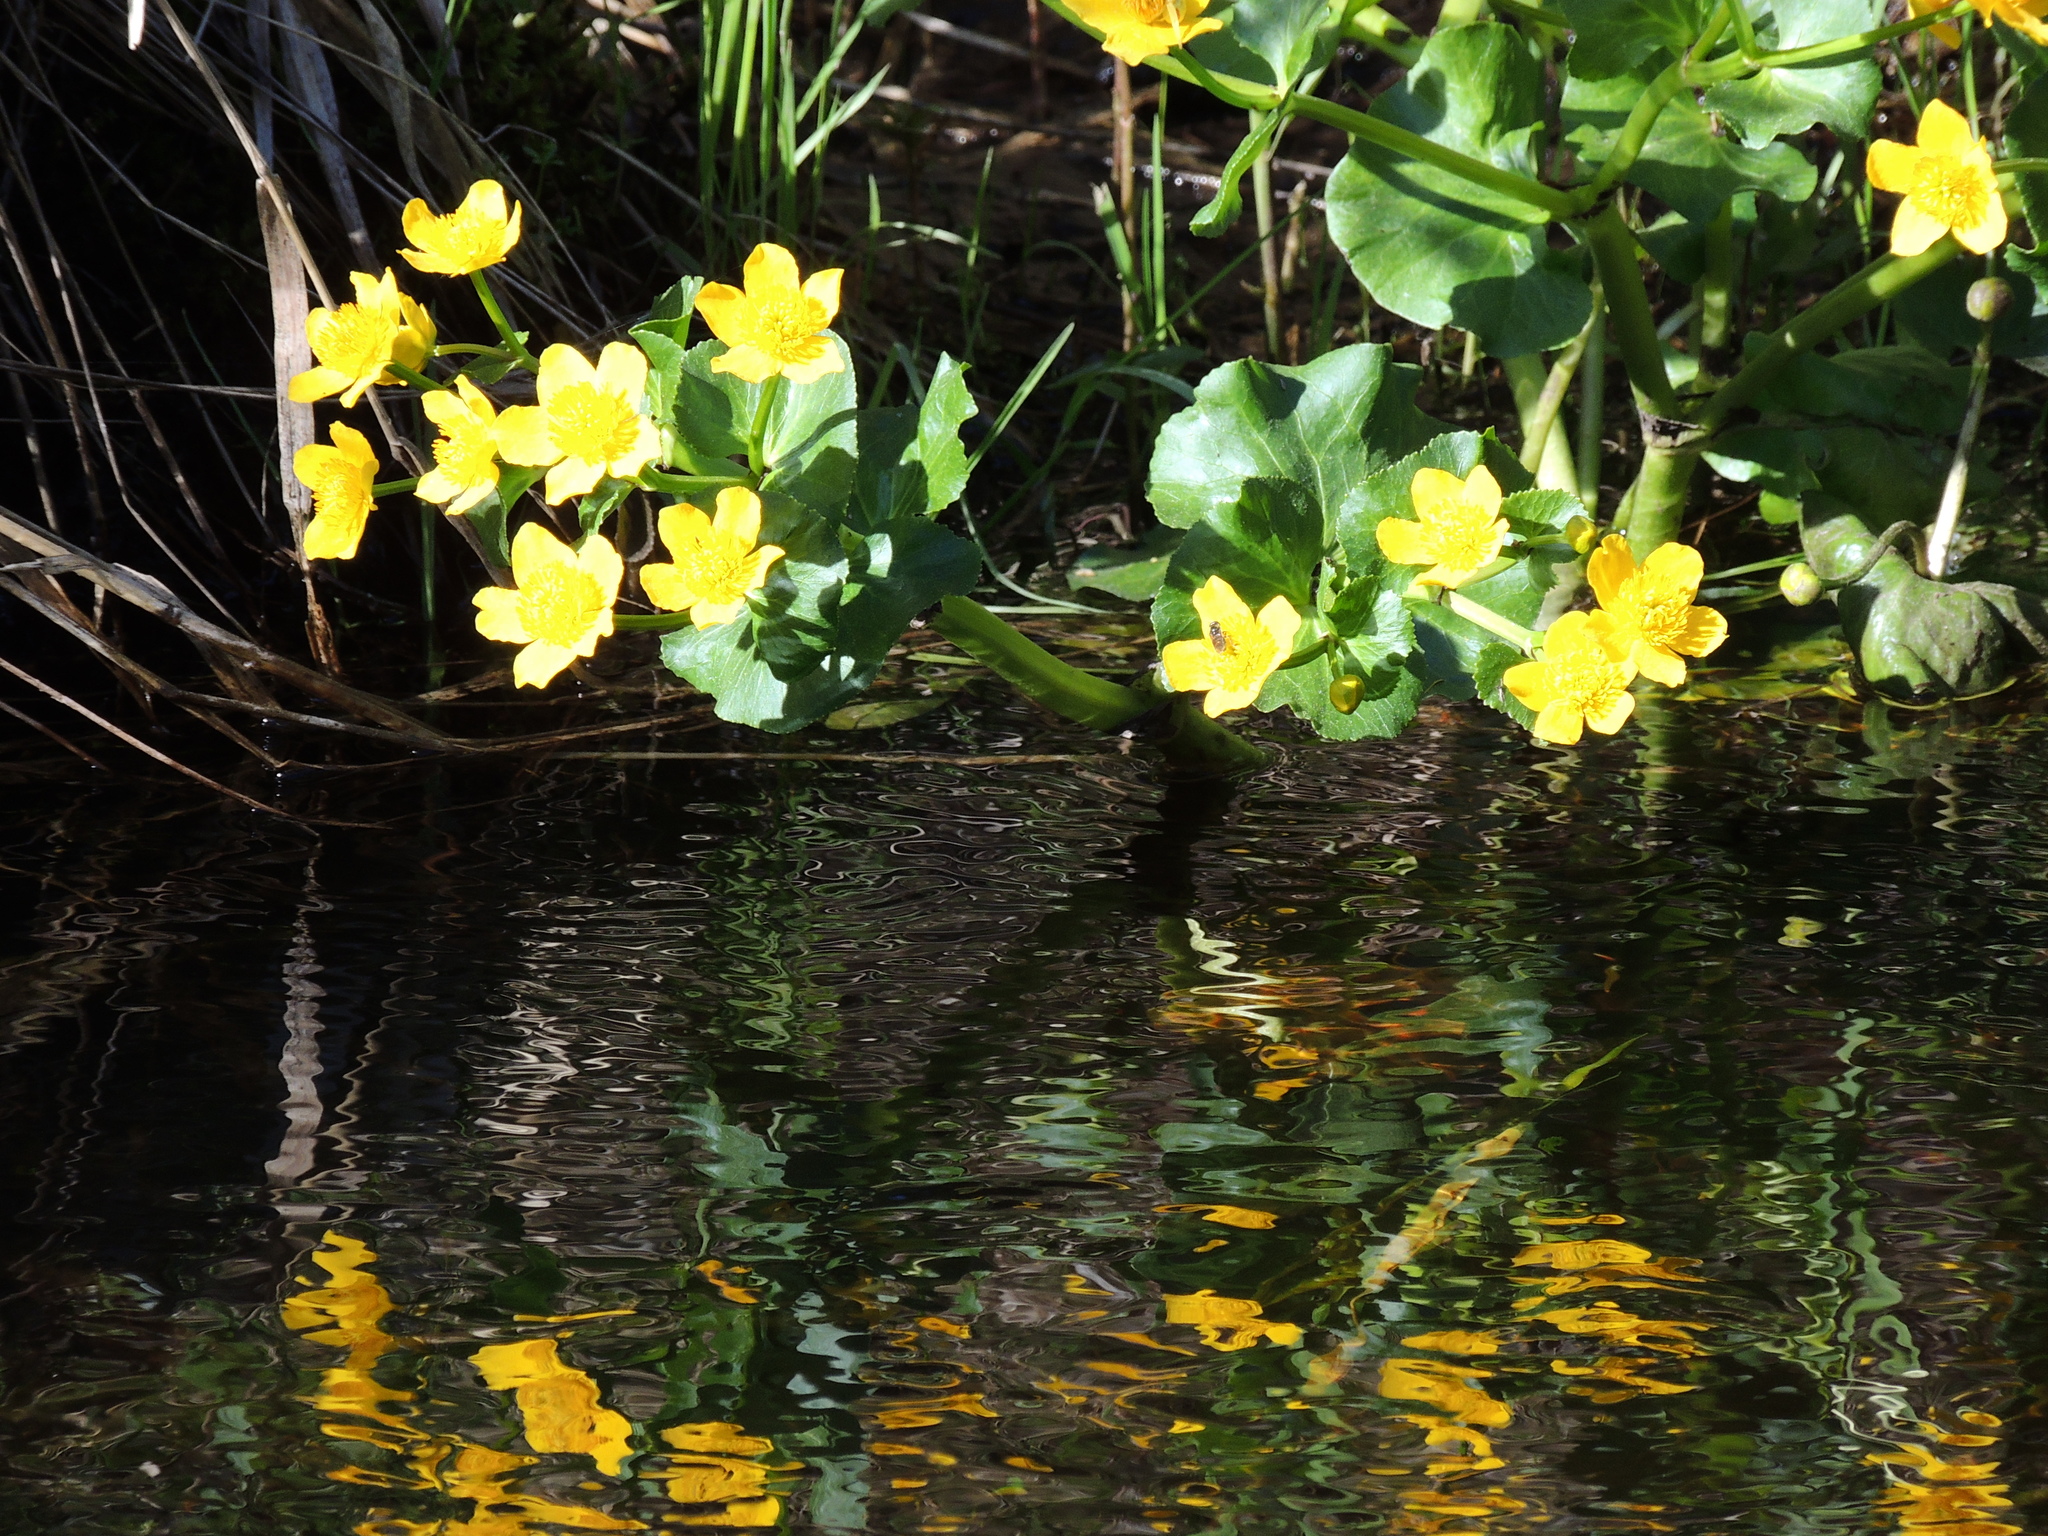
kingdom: Plantae
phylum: Tracheophyta
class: Magnoliopsida
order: Ranunculales
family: Ranunculaceae
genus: Caltha
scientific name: Caltha palustris
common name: Marsh marigold
